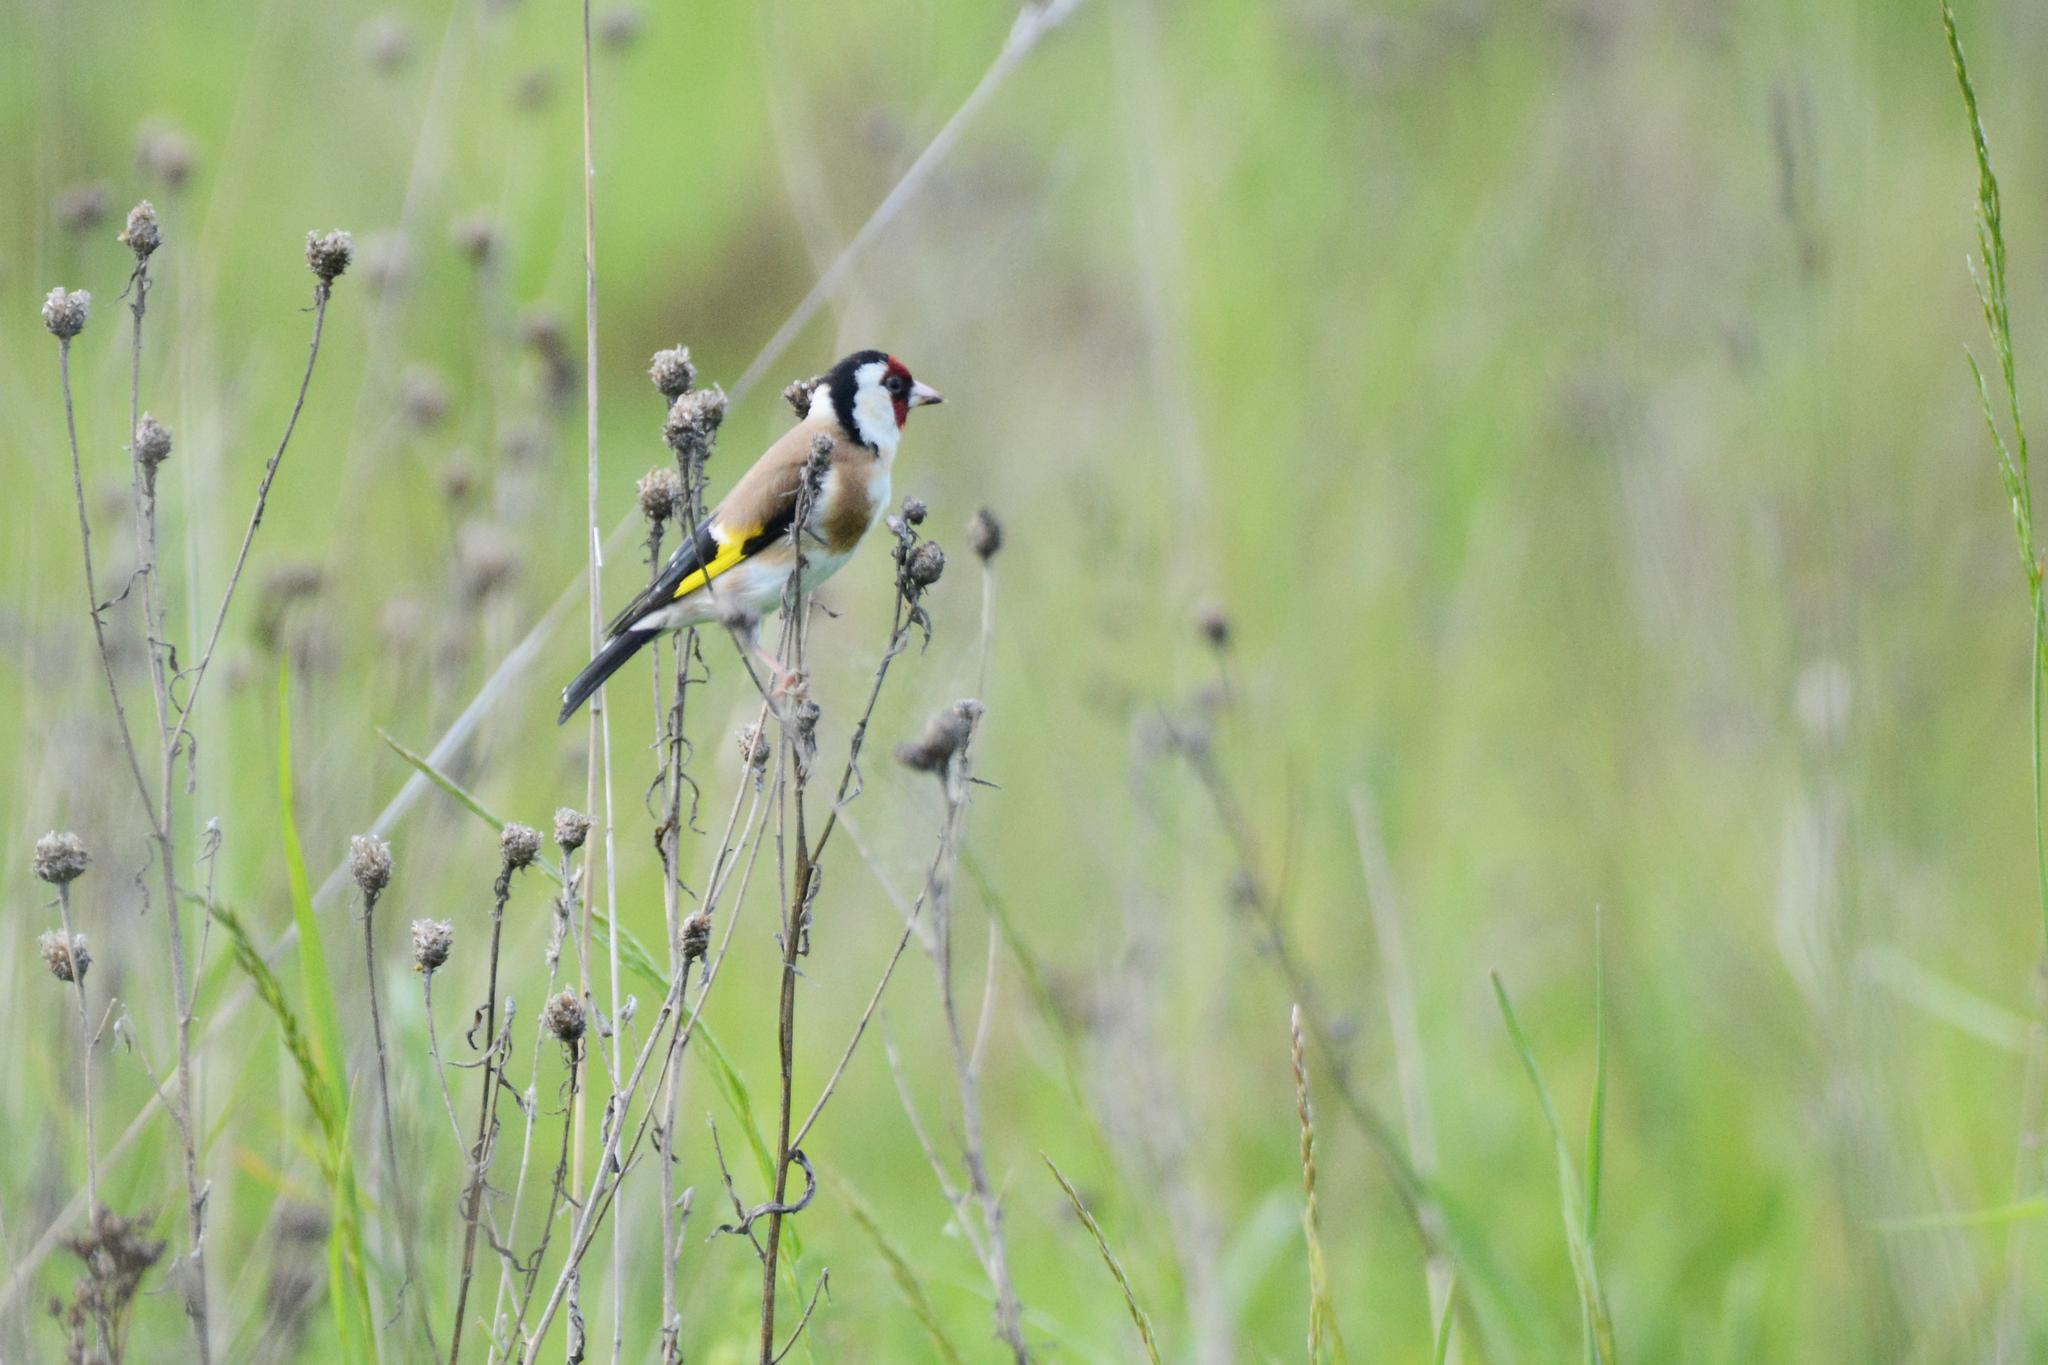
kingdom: Animalia
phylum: Chordata
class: Aves
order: Passeriformes
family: Fringillidae
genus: Carduelis
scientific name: Carduelis carduelis
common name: European goldfinch
